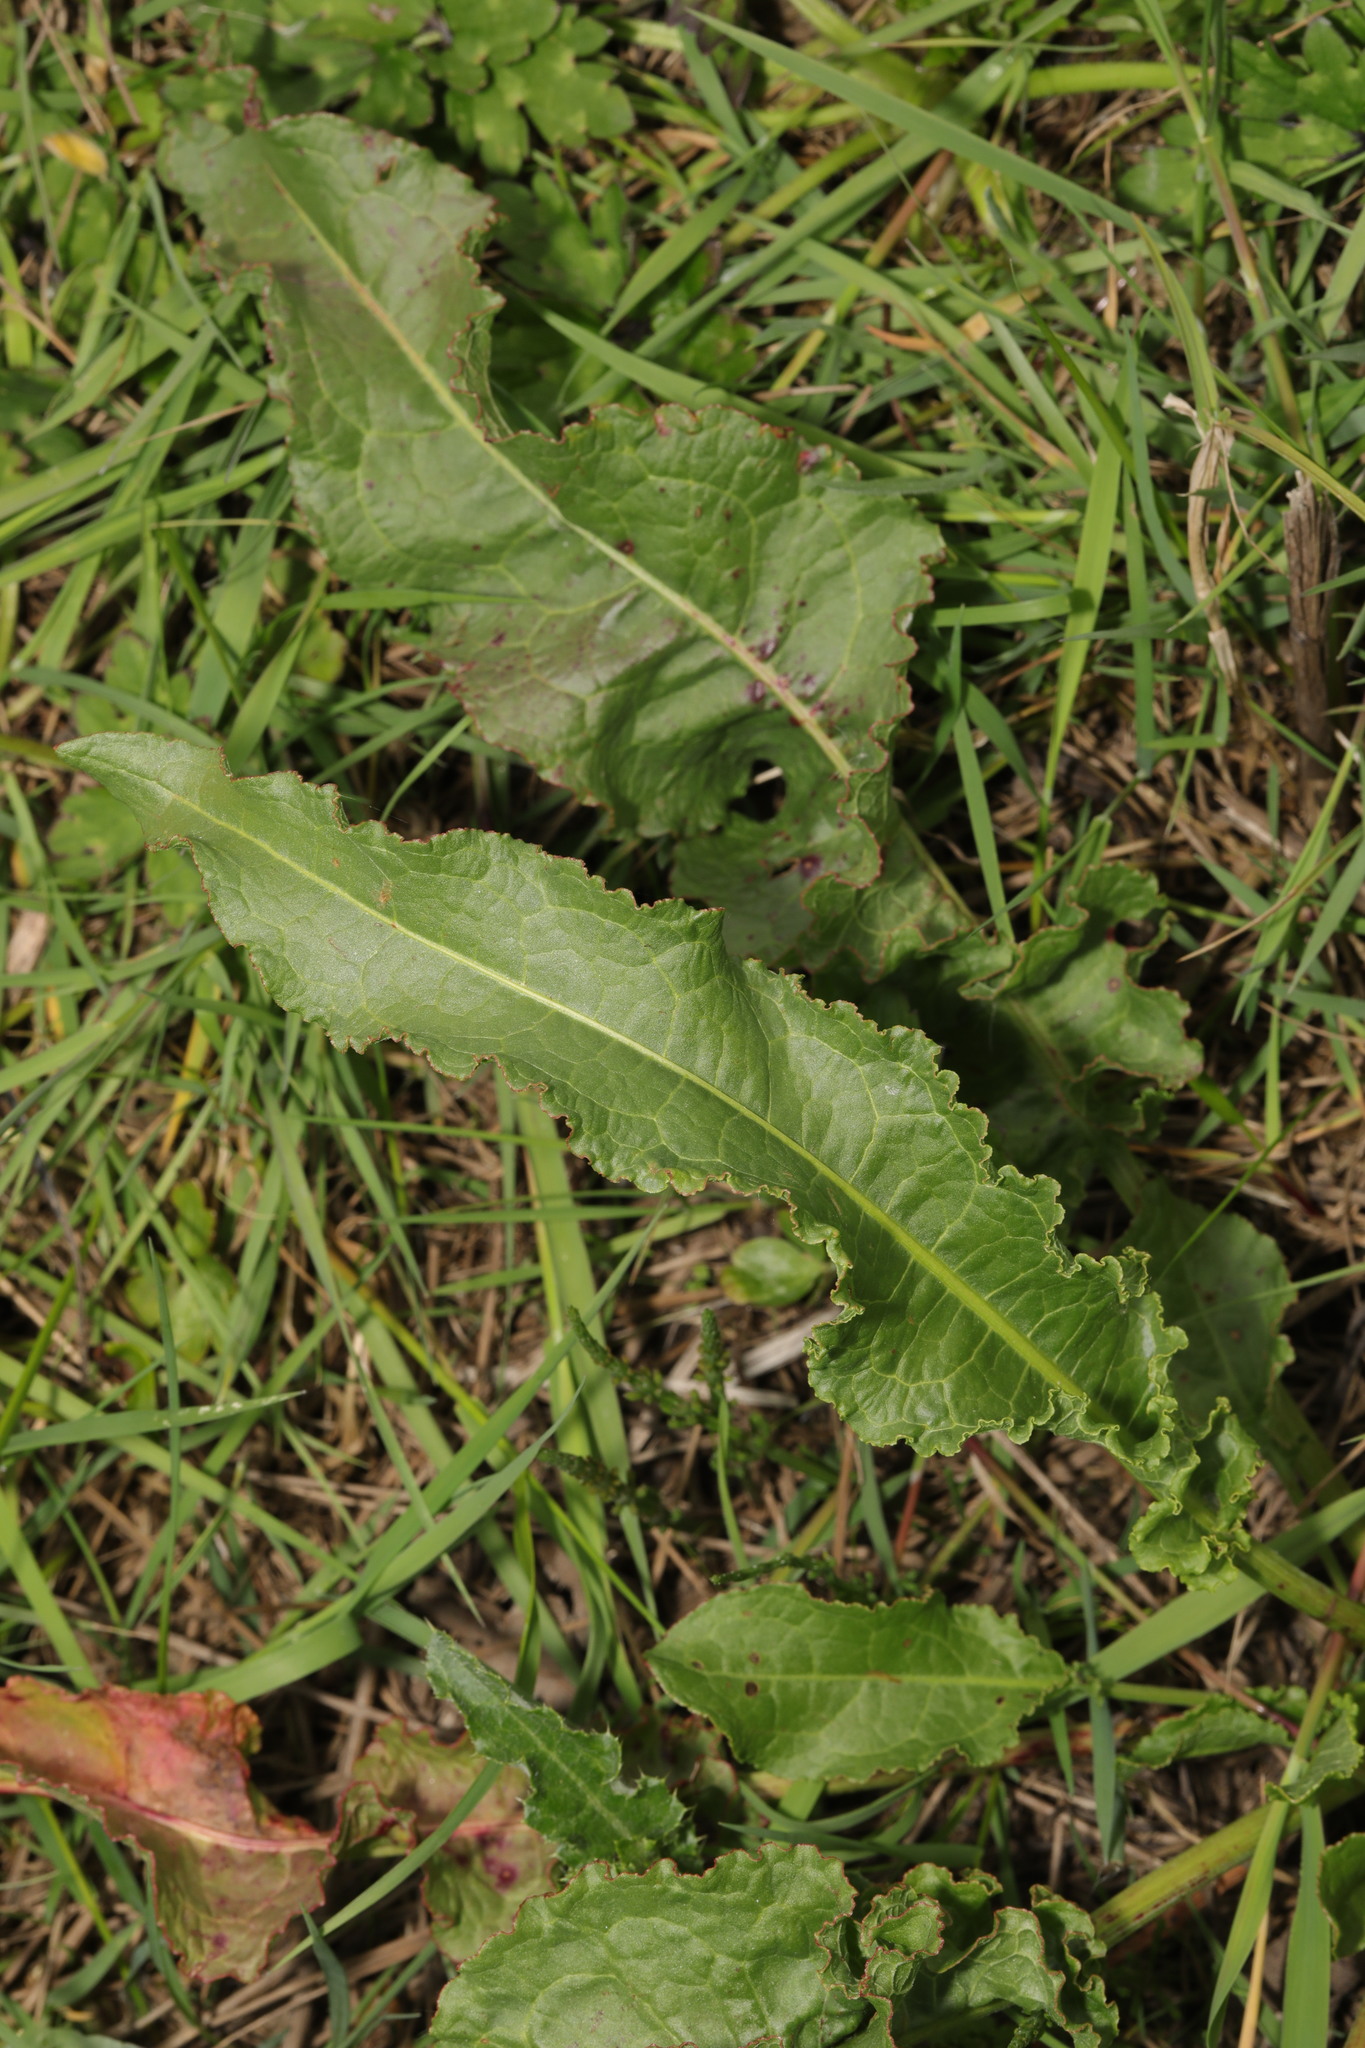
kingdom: Plantae
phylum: Tracheophyta
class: Magnoliopsida
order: Caryophyllales
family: Polygonaceae
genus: Rumex
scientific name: Rumex crispus
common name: Curled dock
